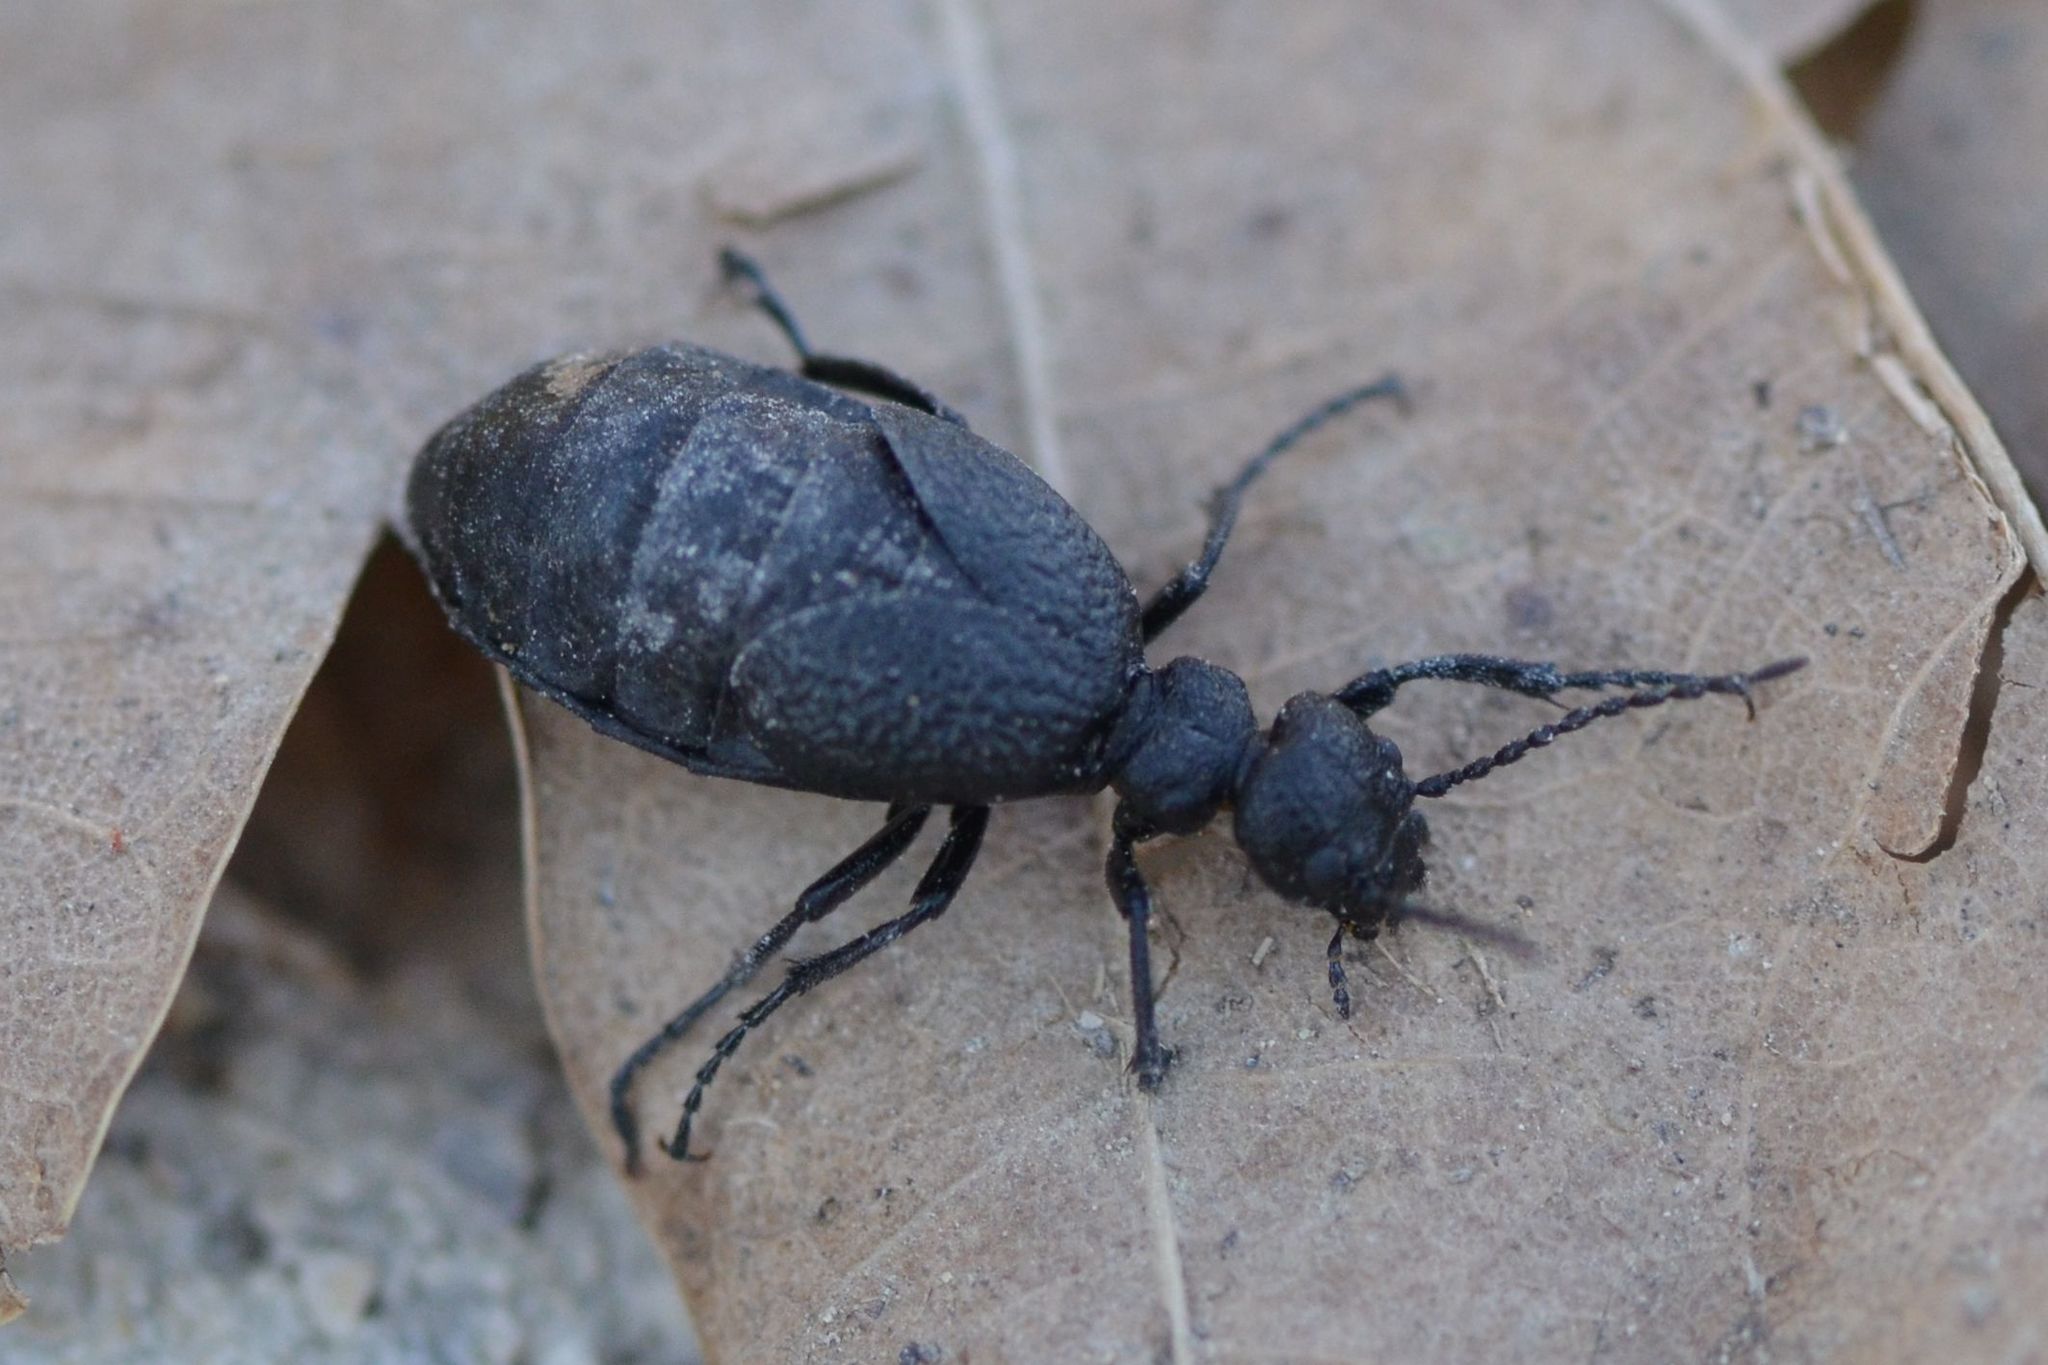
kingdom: Animalia
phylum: Arthropoda
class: Insecta
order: Coleoptera
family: Meloidae
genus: Meloe
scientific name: Meloe rugosus
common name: Rugged oil-beetle
